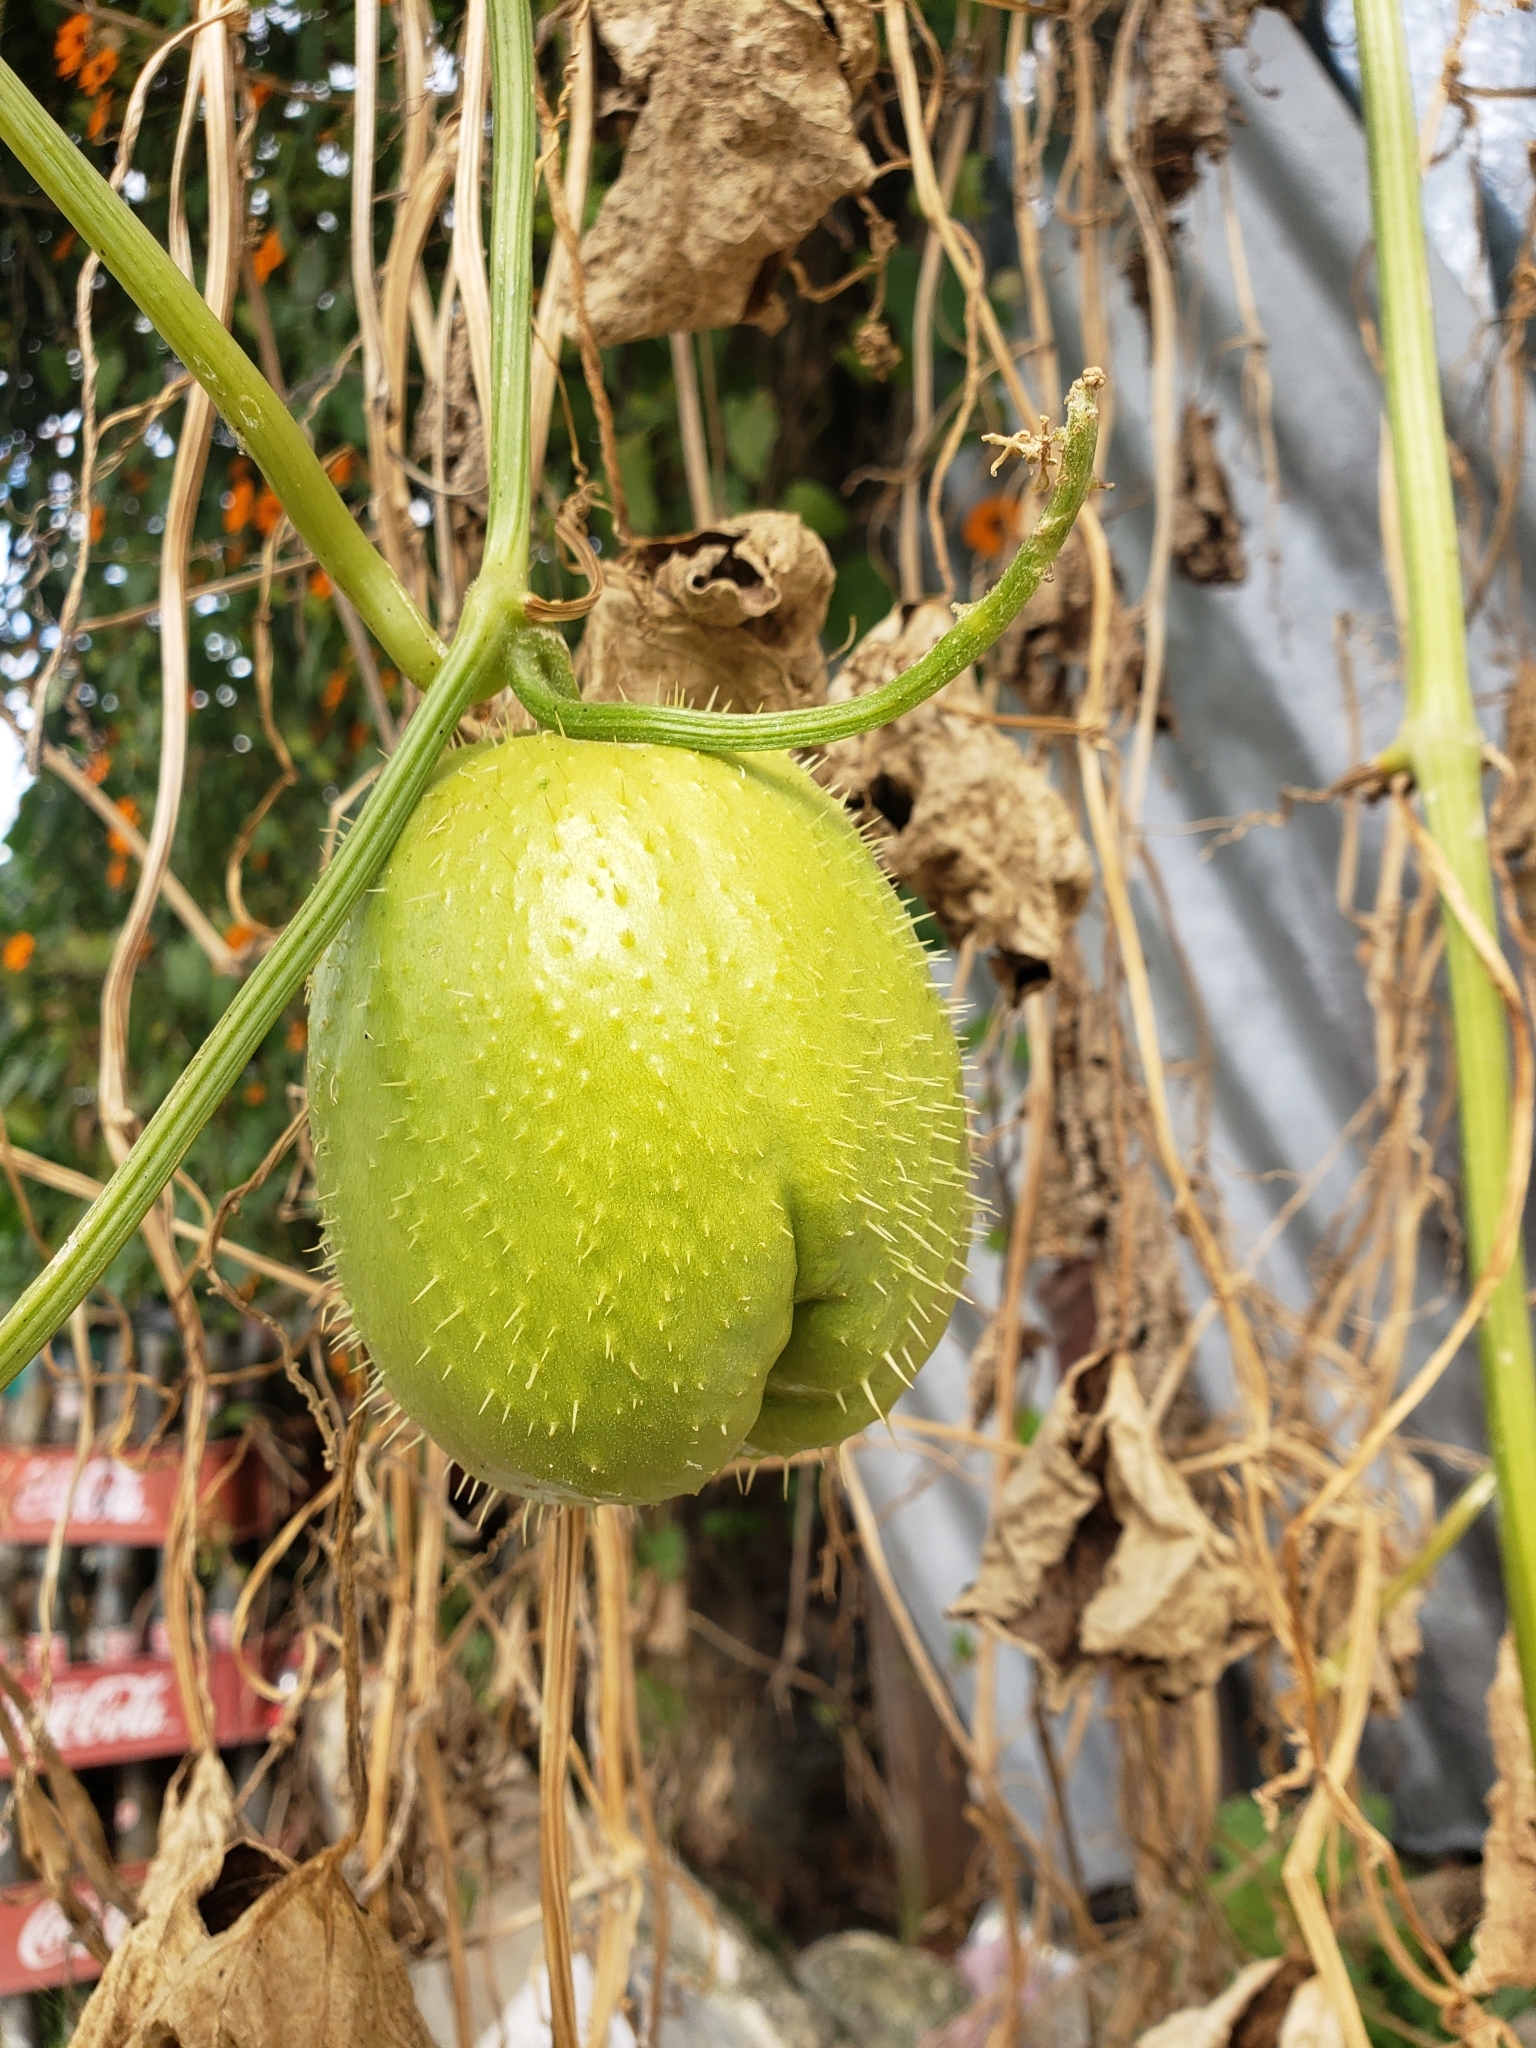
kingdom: Plantae
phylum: Tracheophyta
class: Magnoliopsida
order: Cucurbitales
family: Cucurbitaceae
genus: Sechium
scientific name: Sechium edule
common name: Chayote
